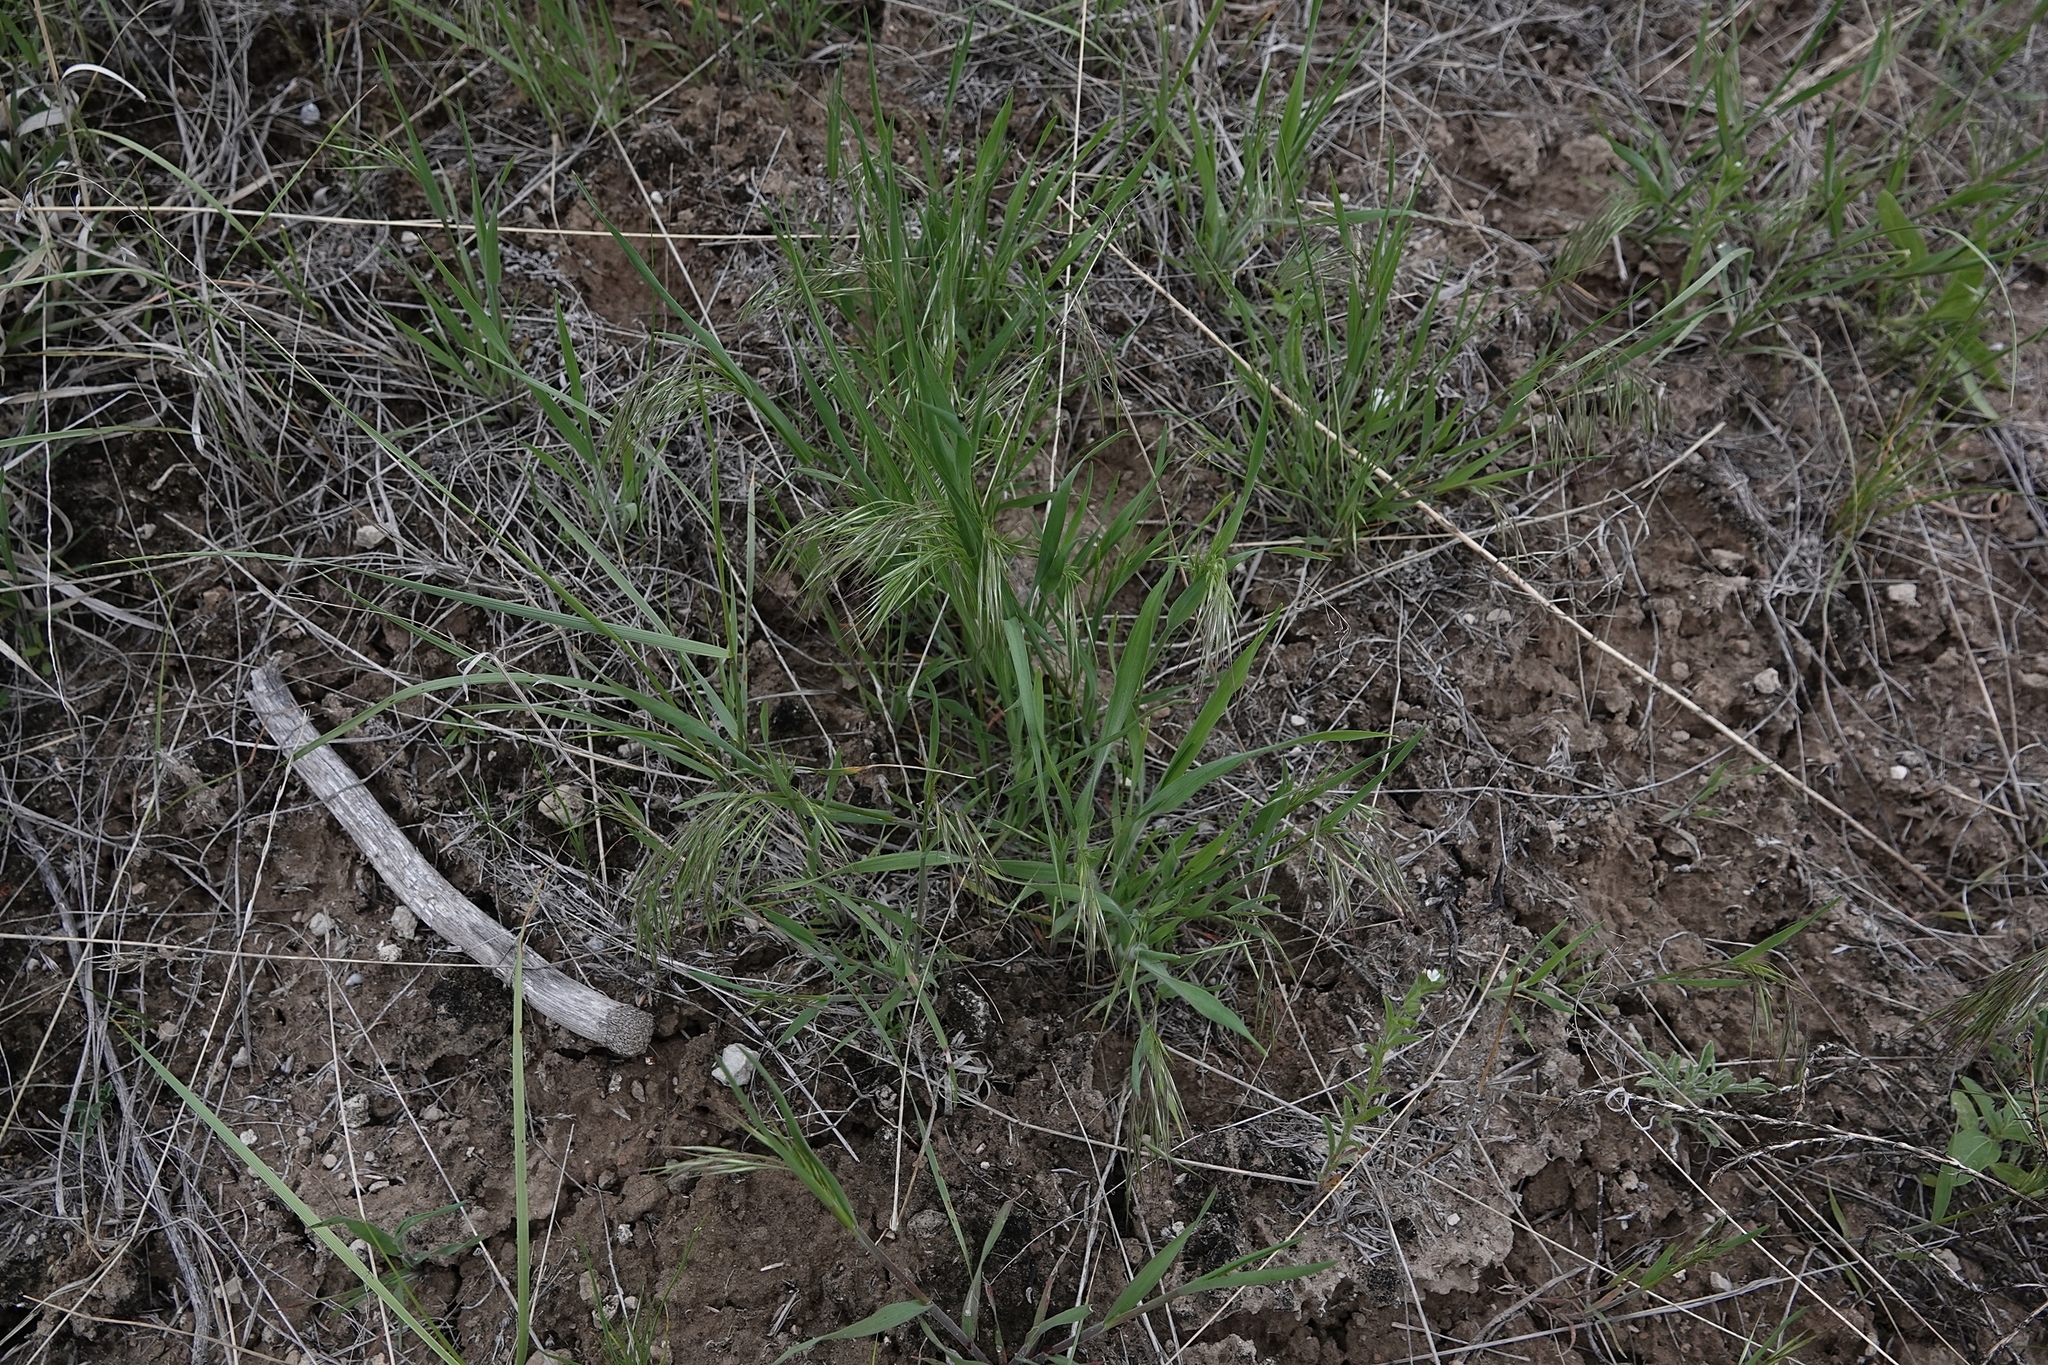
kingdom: Plantae
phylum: Tracheophyta
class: Liliopsida
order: Poales
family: Poaceae
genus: Bromus
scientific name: Bromus tectorum
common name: Cheatgrass
